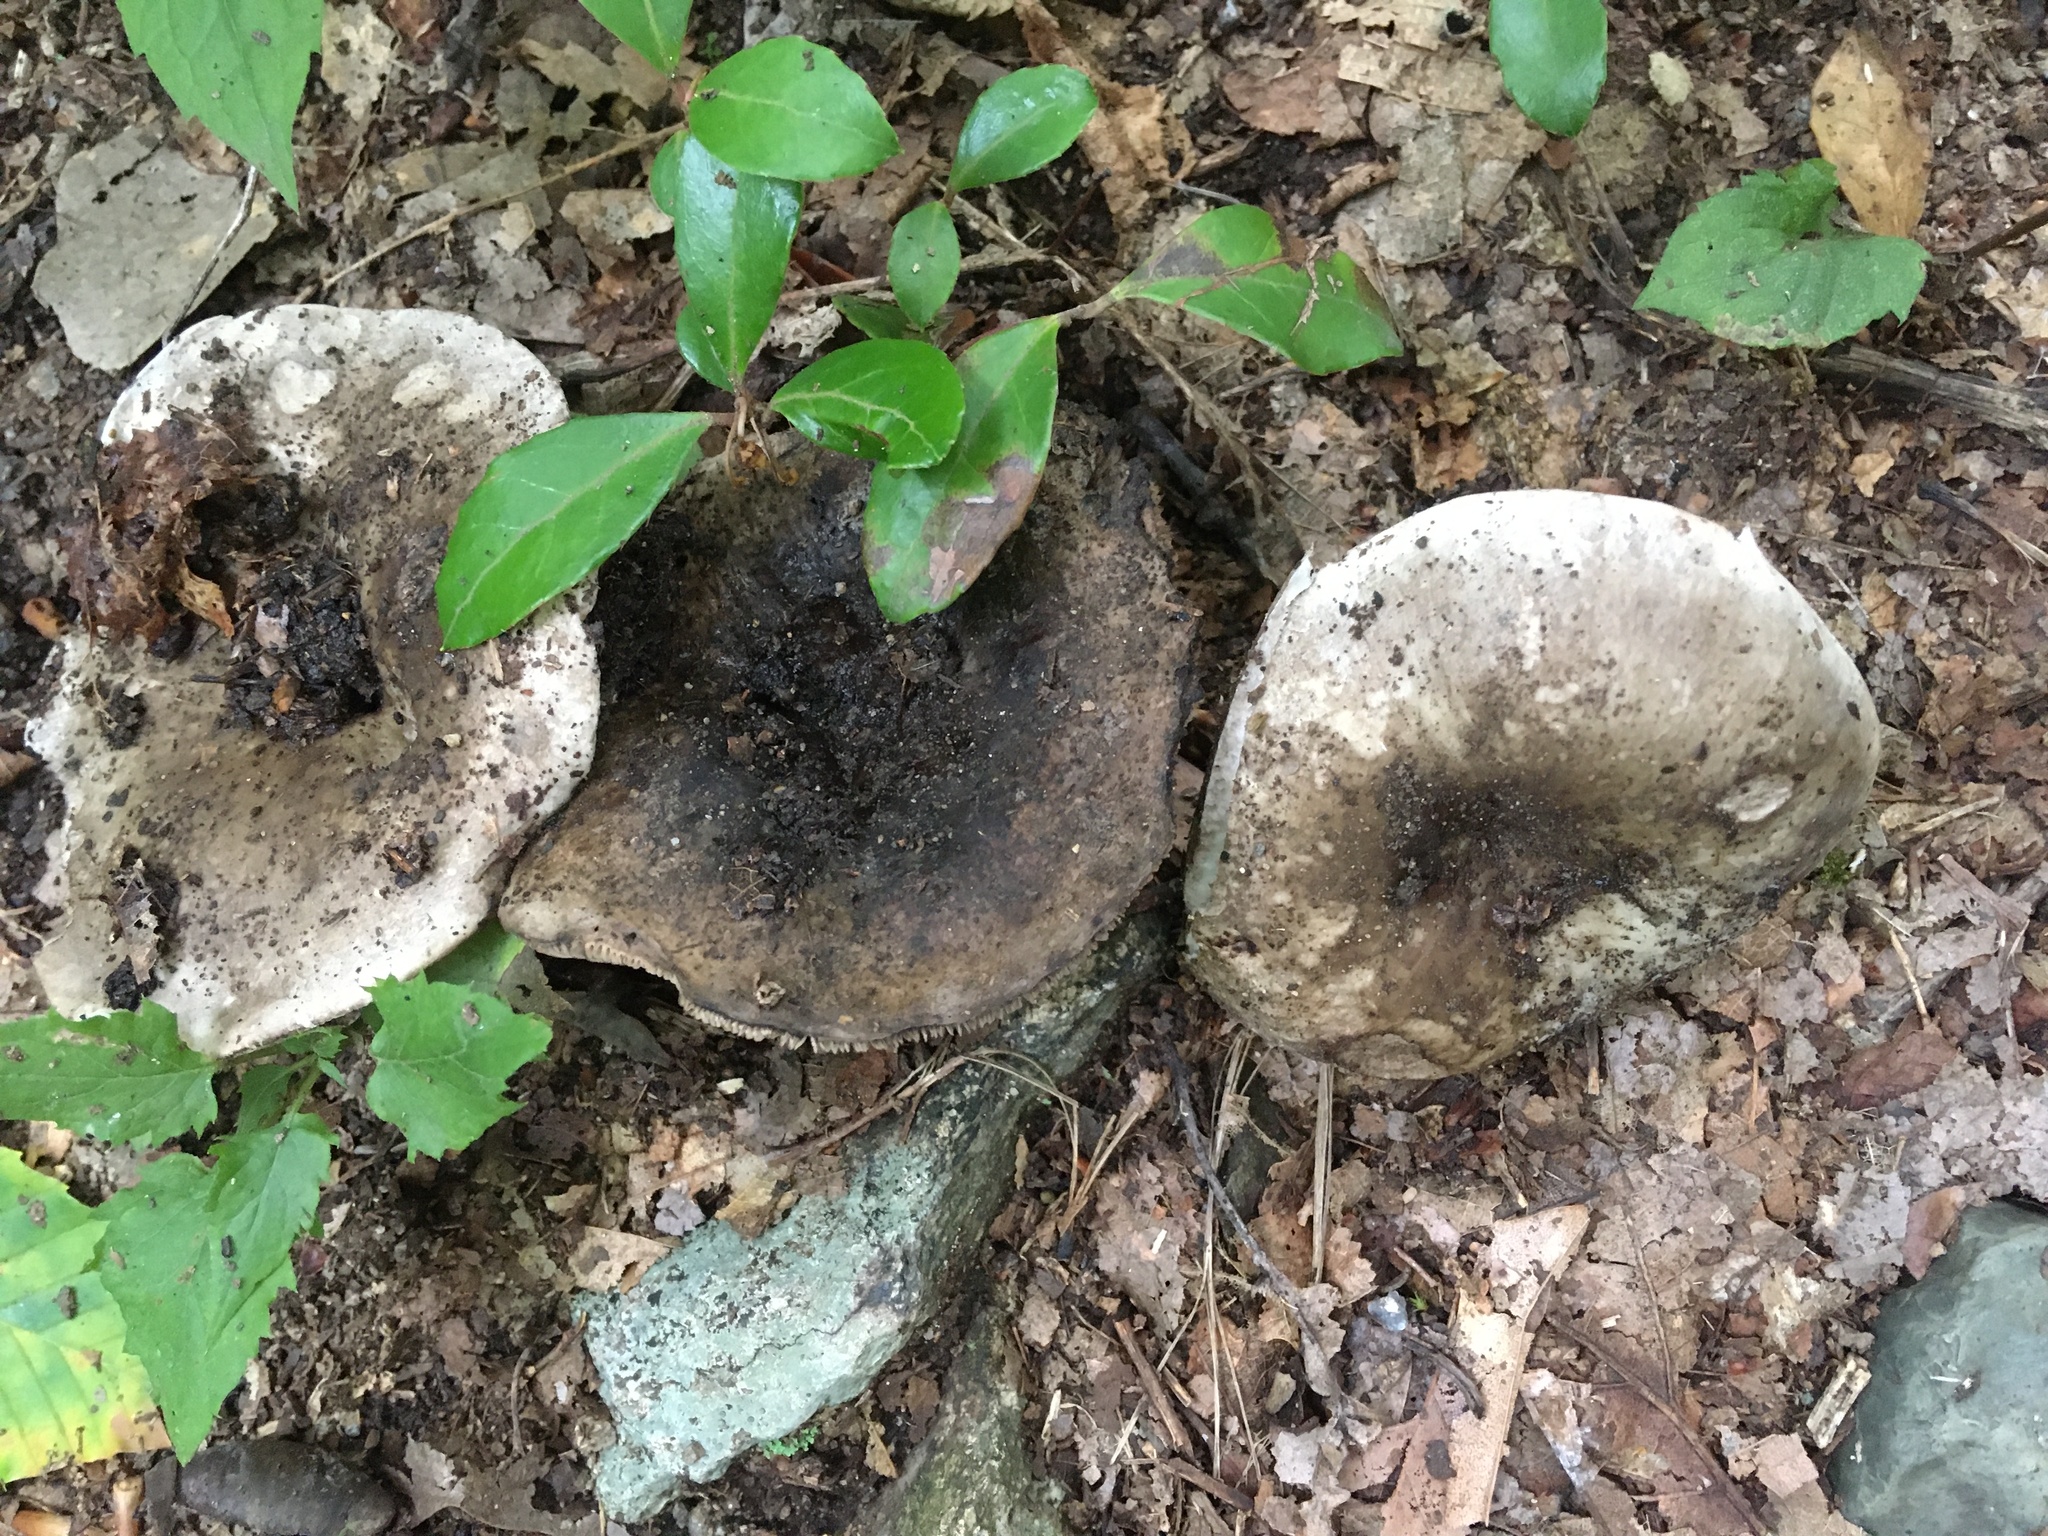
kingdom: Fungi
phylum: Basidiomycota
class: Agaricomycetes
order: Russulales
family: Russulaceae
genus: Russula
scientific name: Russula albonigra
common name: Menthol brittlegill
